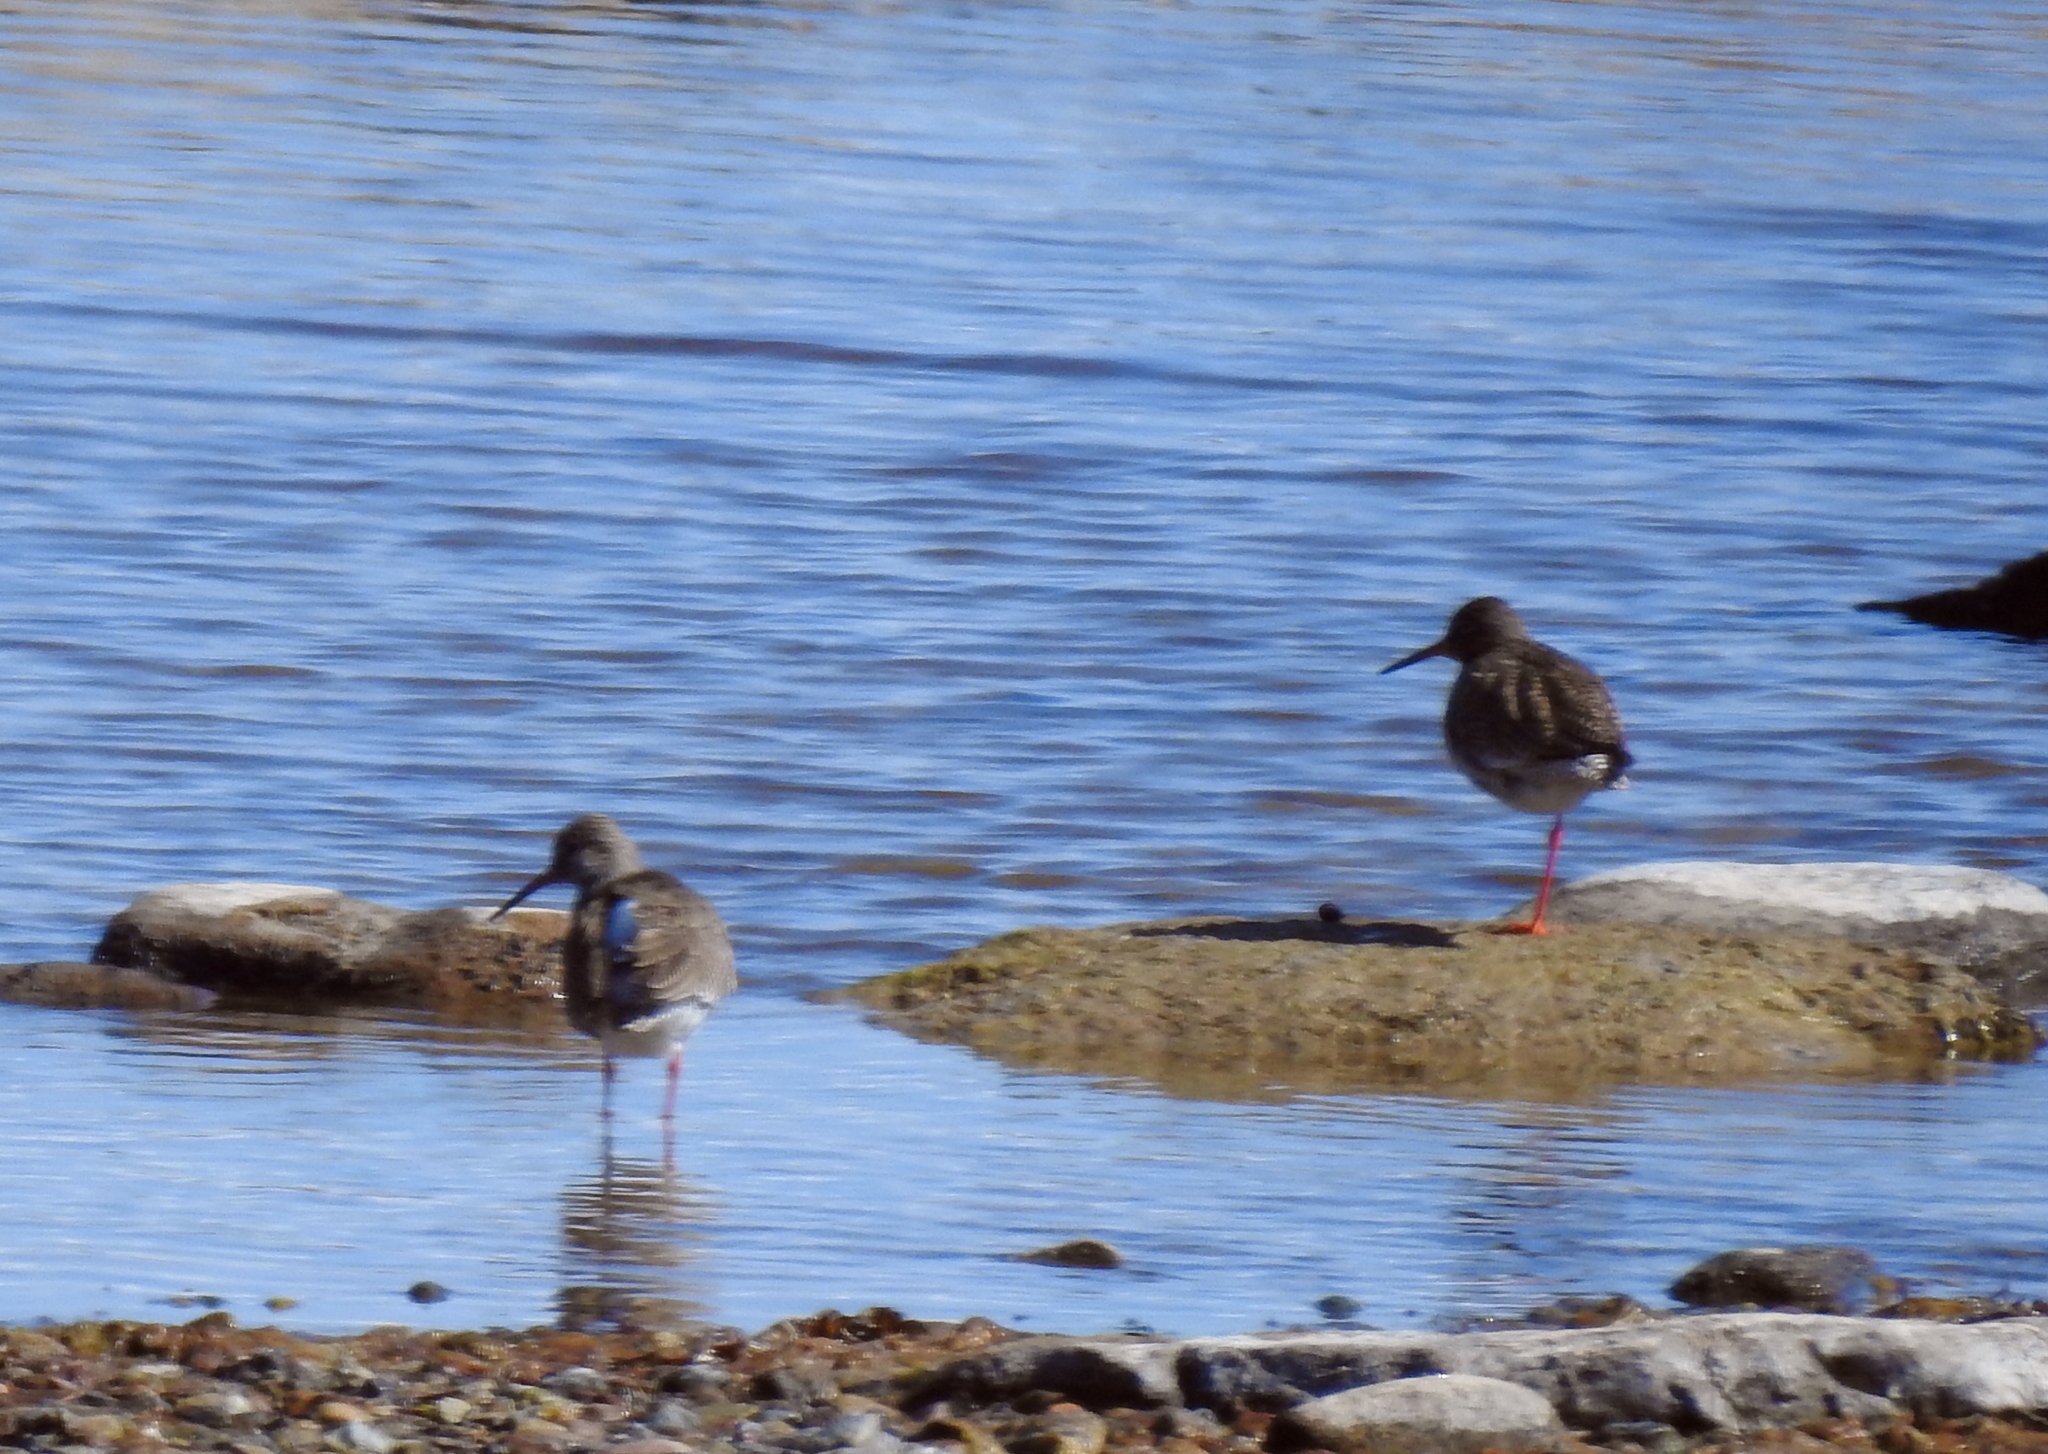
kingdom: Animalia
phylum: Chordata
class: Aves
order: Charadriiformes
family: Scolopacidae
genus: Tringa
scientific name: Tringa totanus
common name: Common redshank
